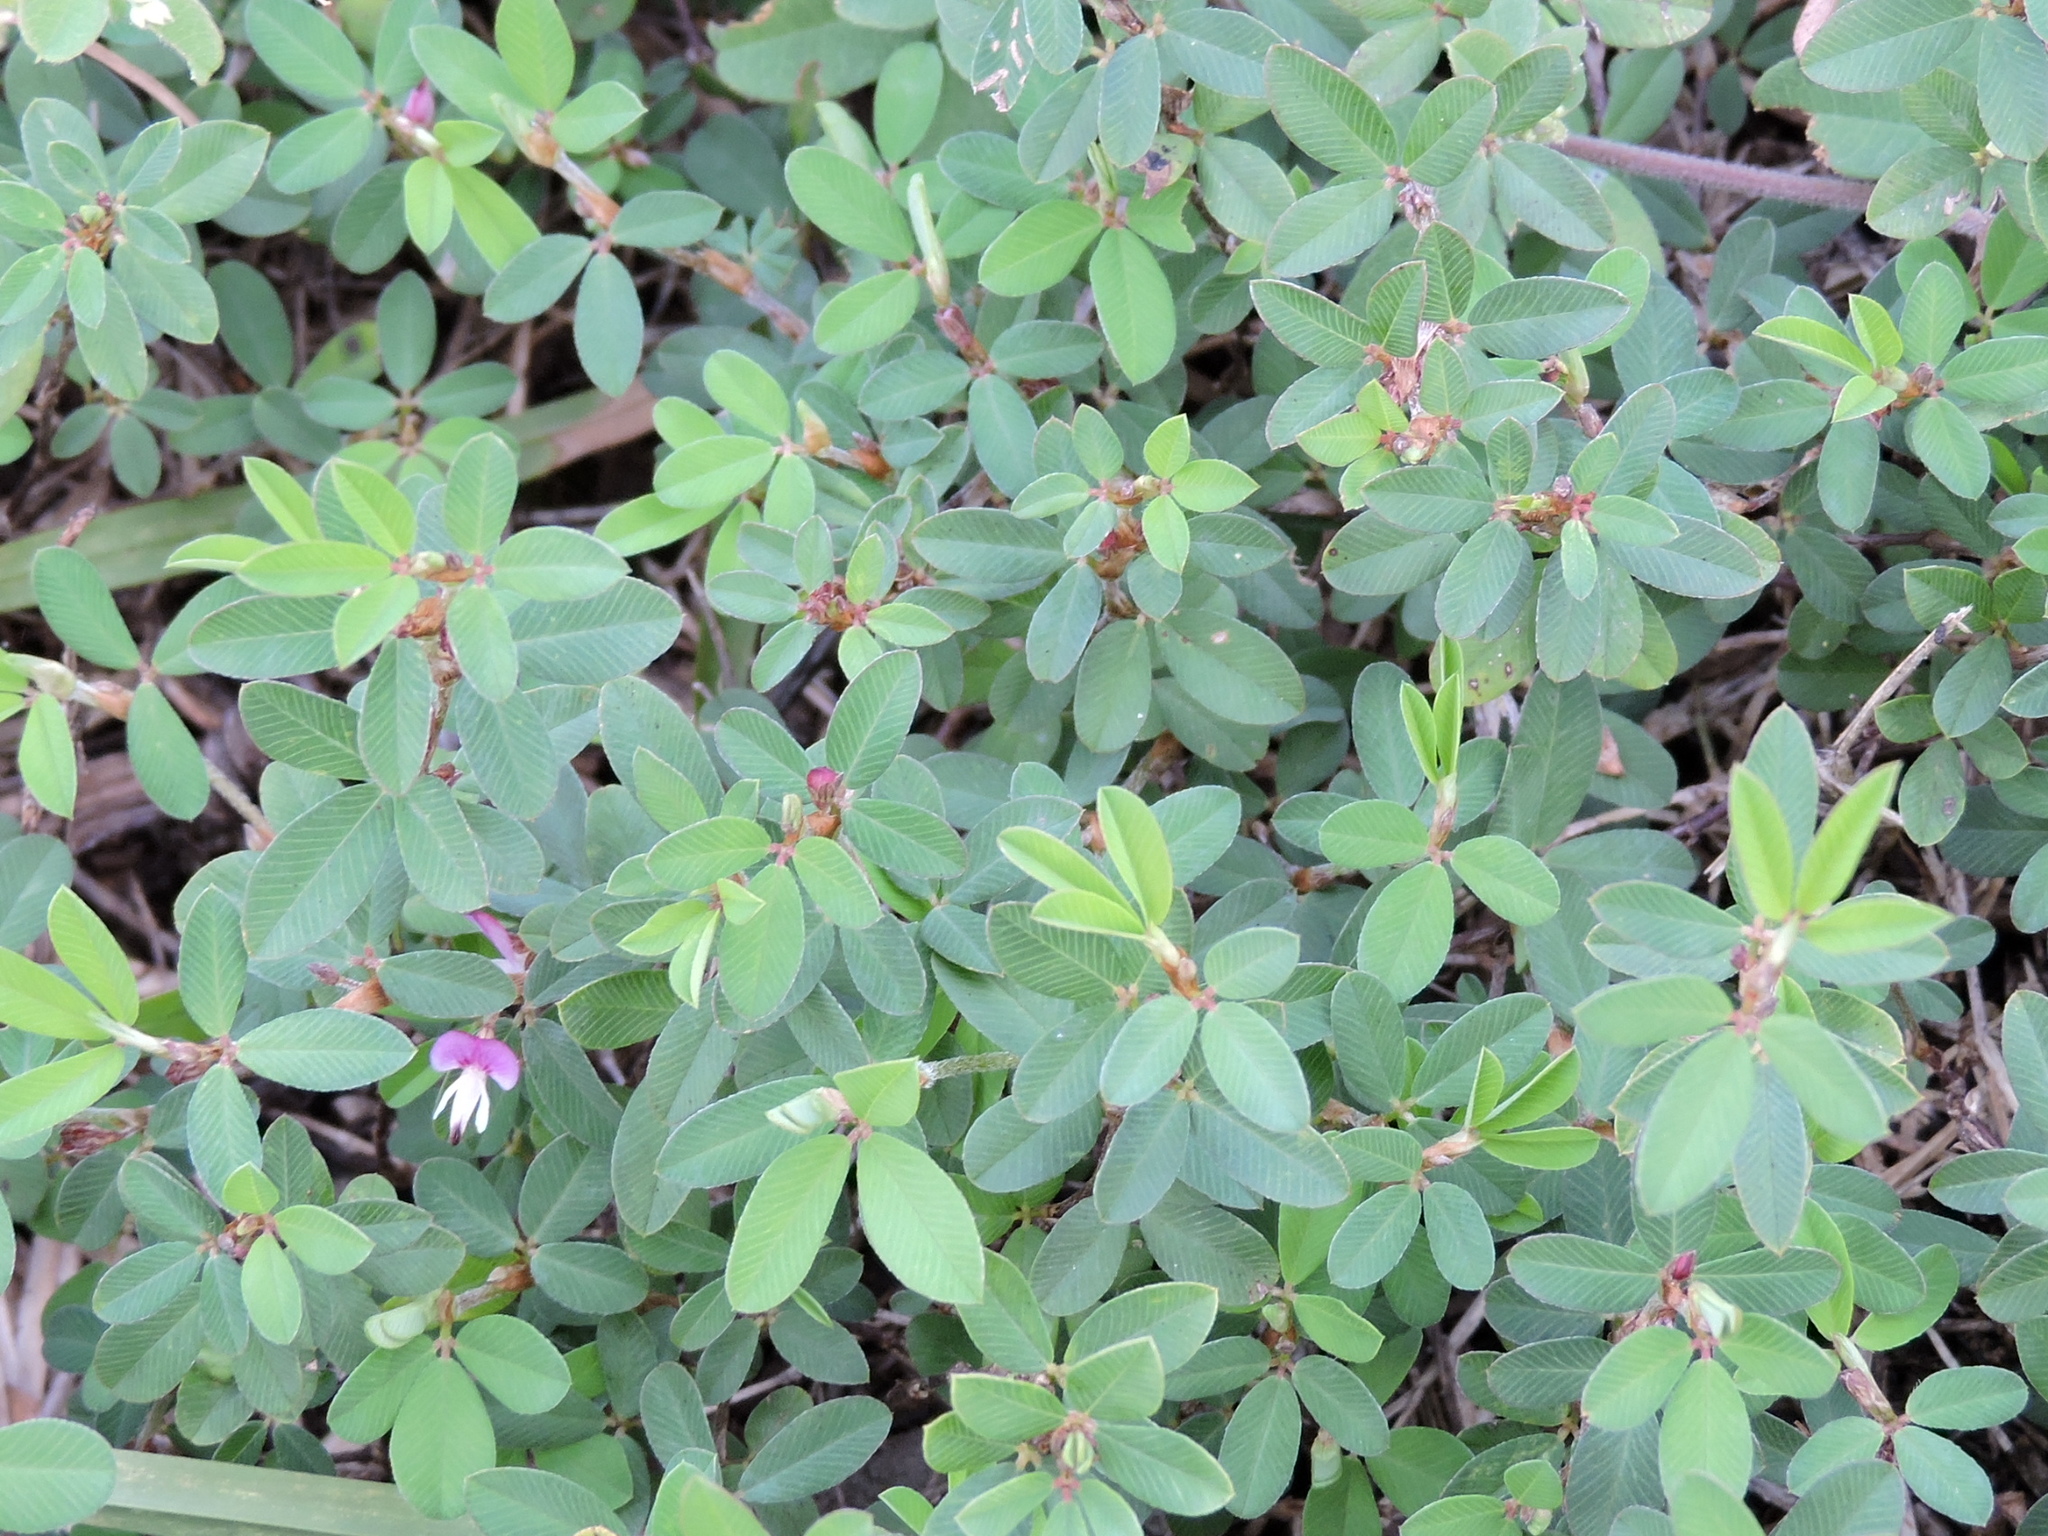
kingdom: Plantae
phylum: Tracheophyta
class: Magnoliopsida
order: Fabales
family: Fabaceae
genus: Kummerowia
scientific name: Kummerowia striata
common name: Japanese clover
